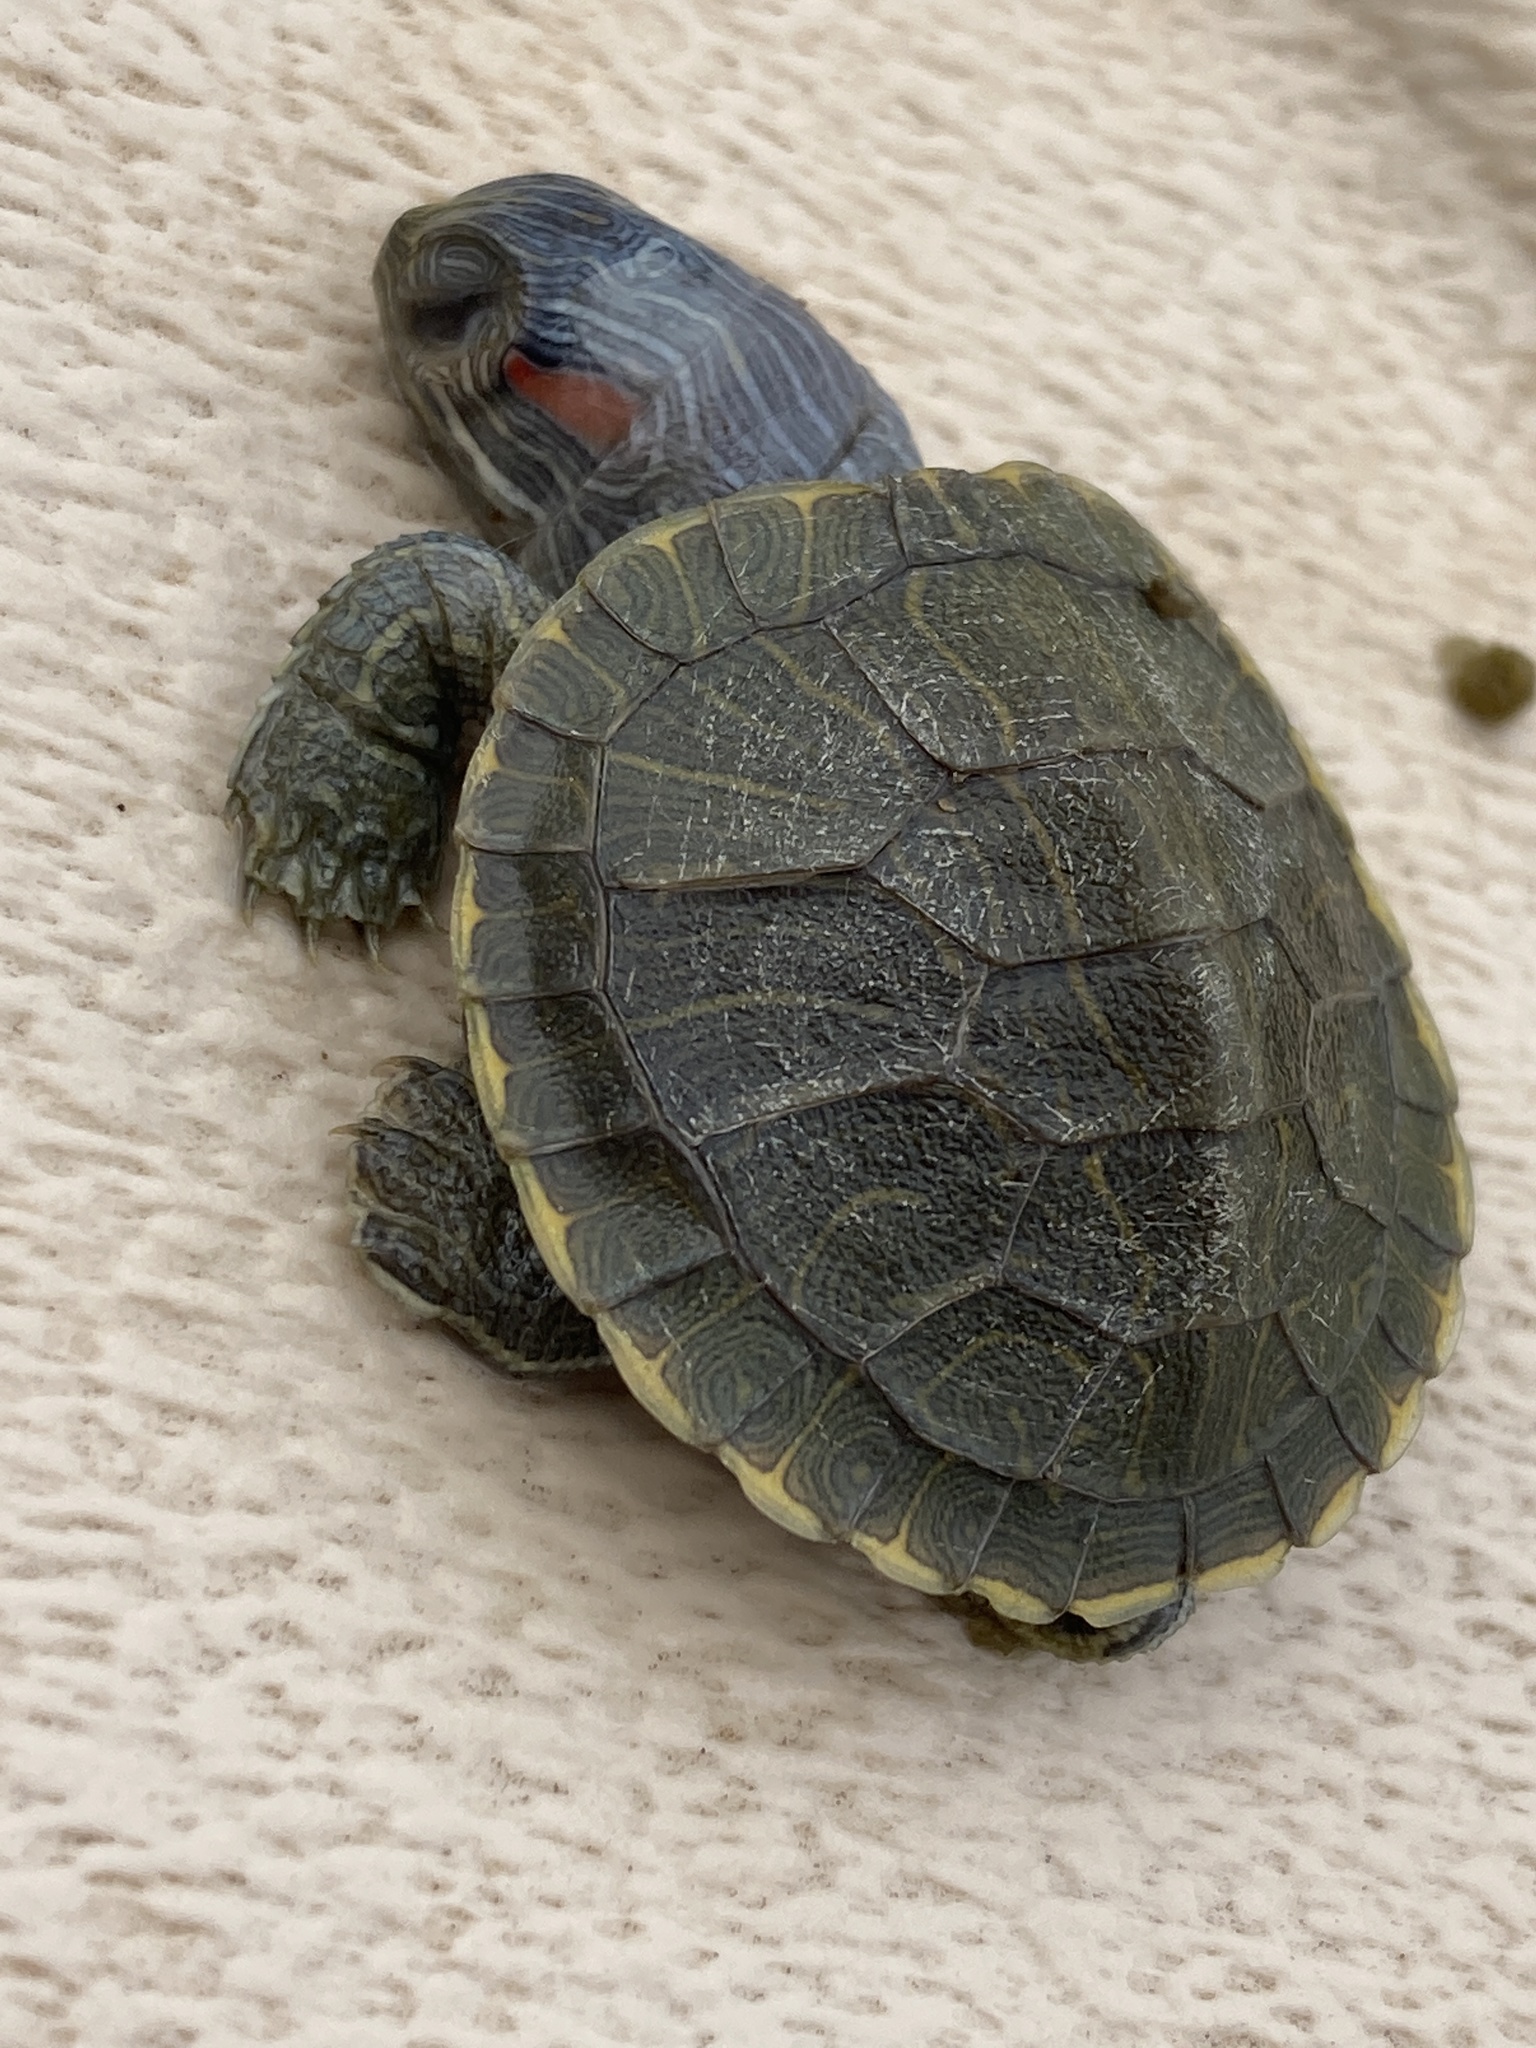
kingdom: Animalia
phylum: Chordata
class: Testudines
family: Emydidae
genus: Trachemys
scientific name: Trachemys scripta
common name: Slider
